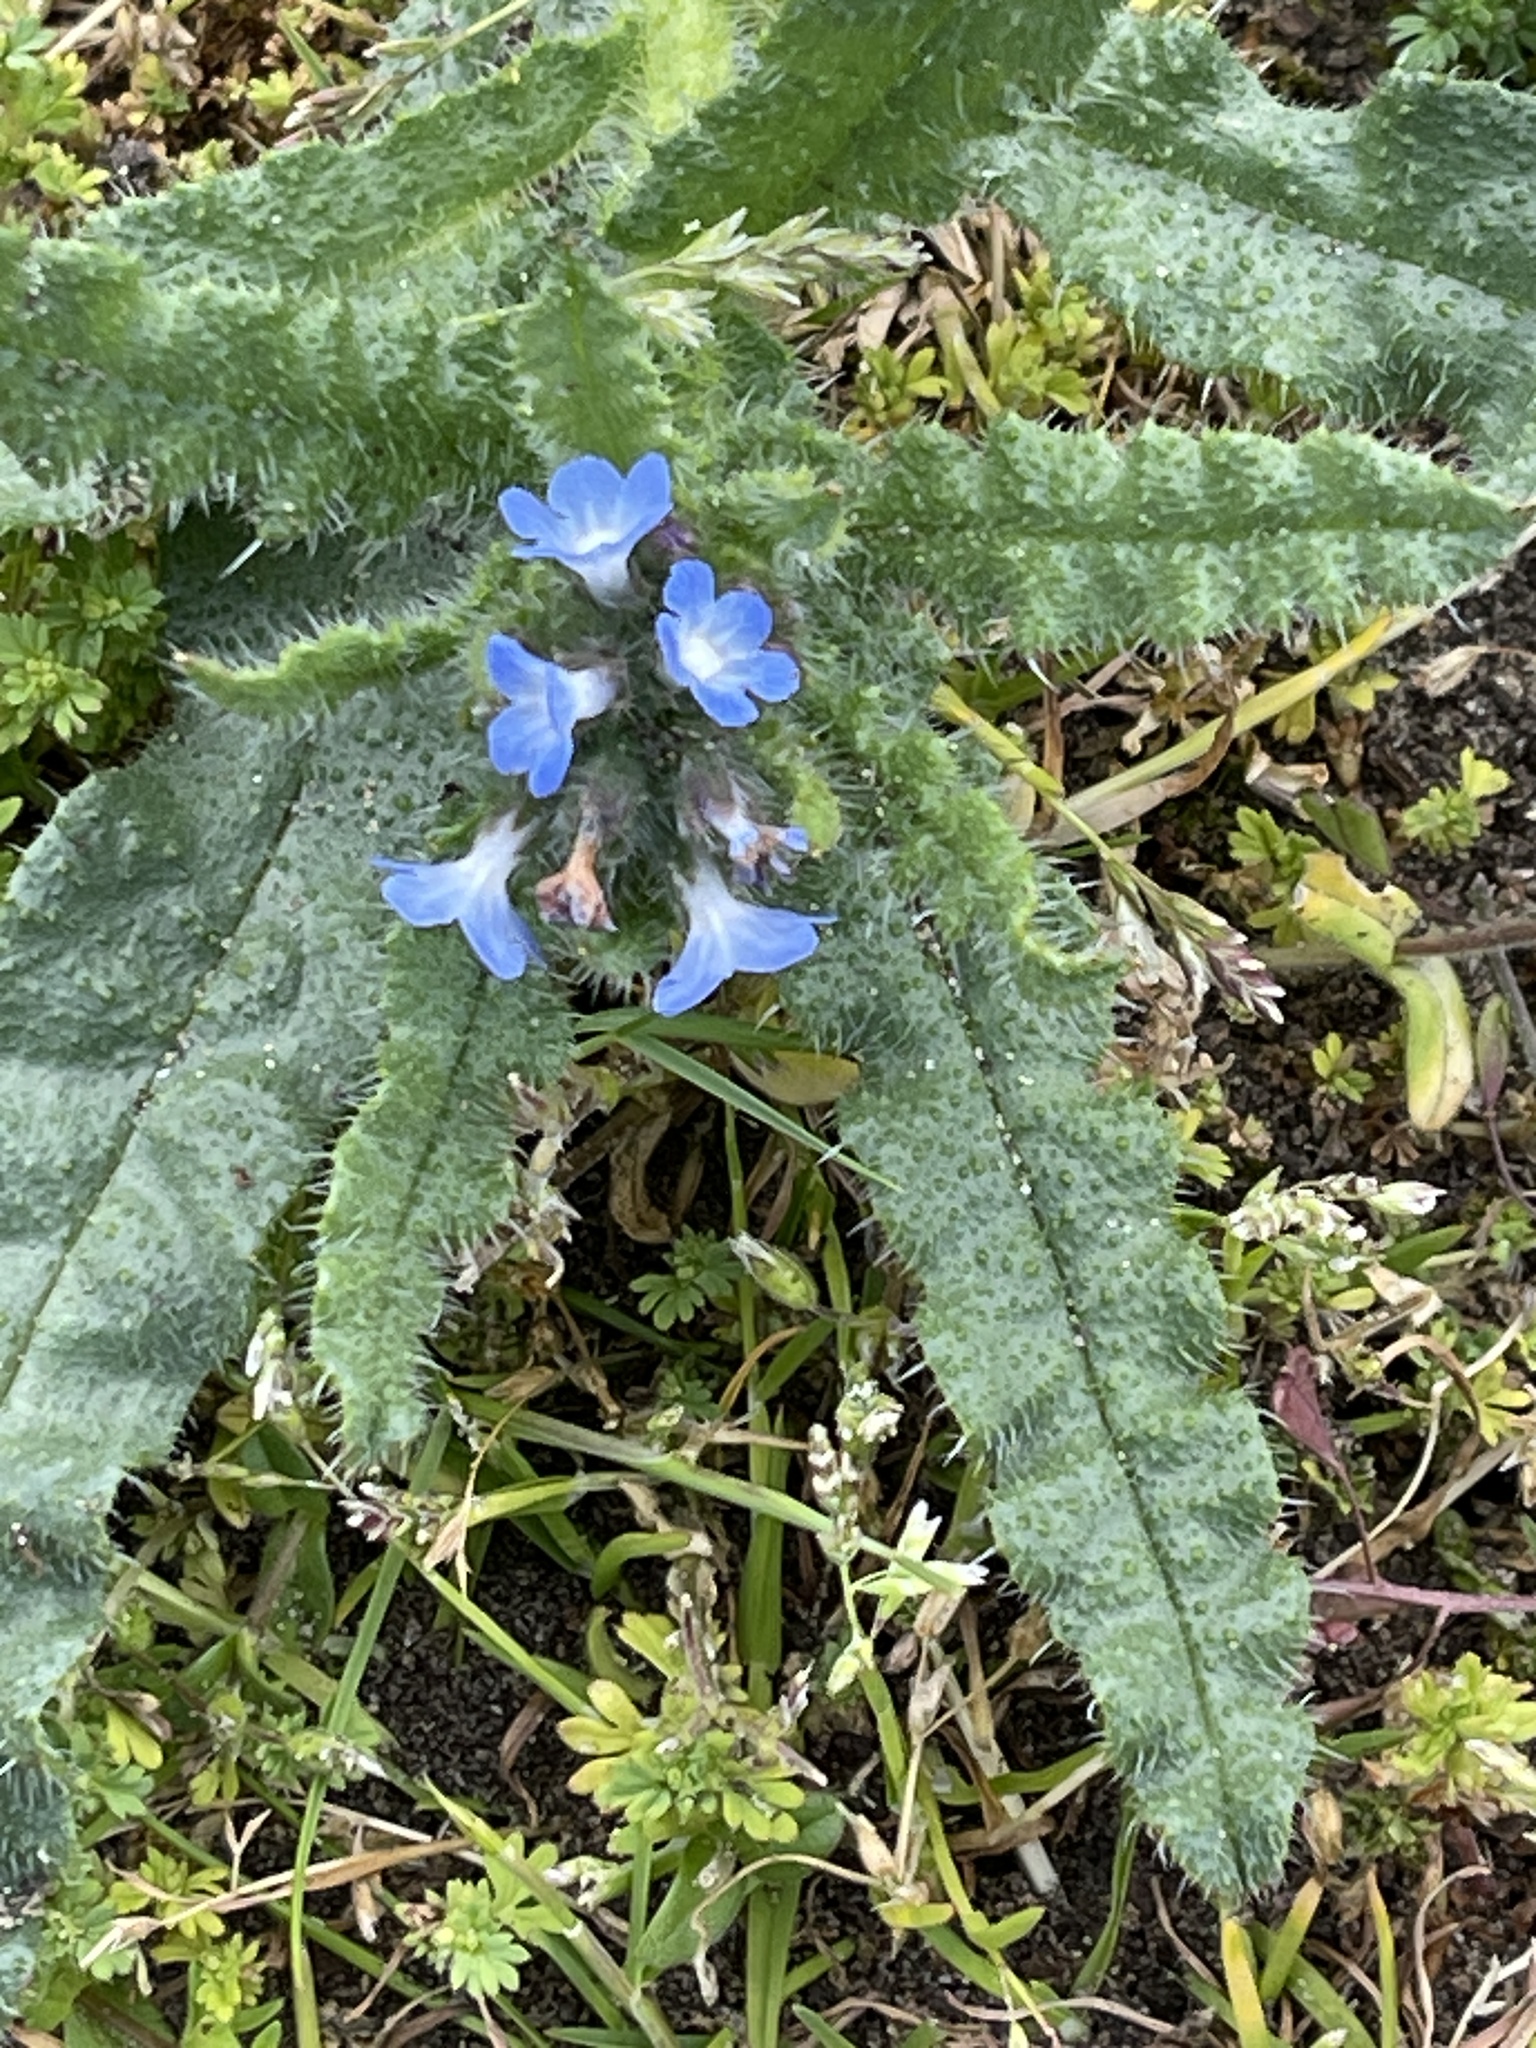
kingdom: Plantae
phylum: Tracheophyta
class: Magnoliopsida
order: Boraginales
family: Boraginaceae
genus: Lycopsis
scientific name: Lycopsis arvensis
